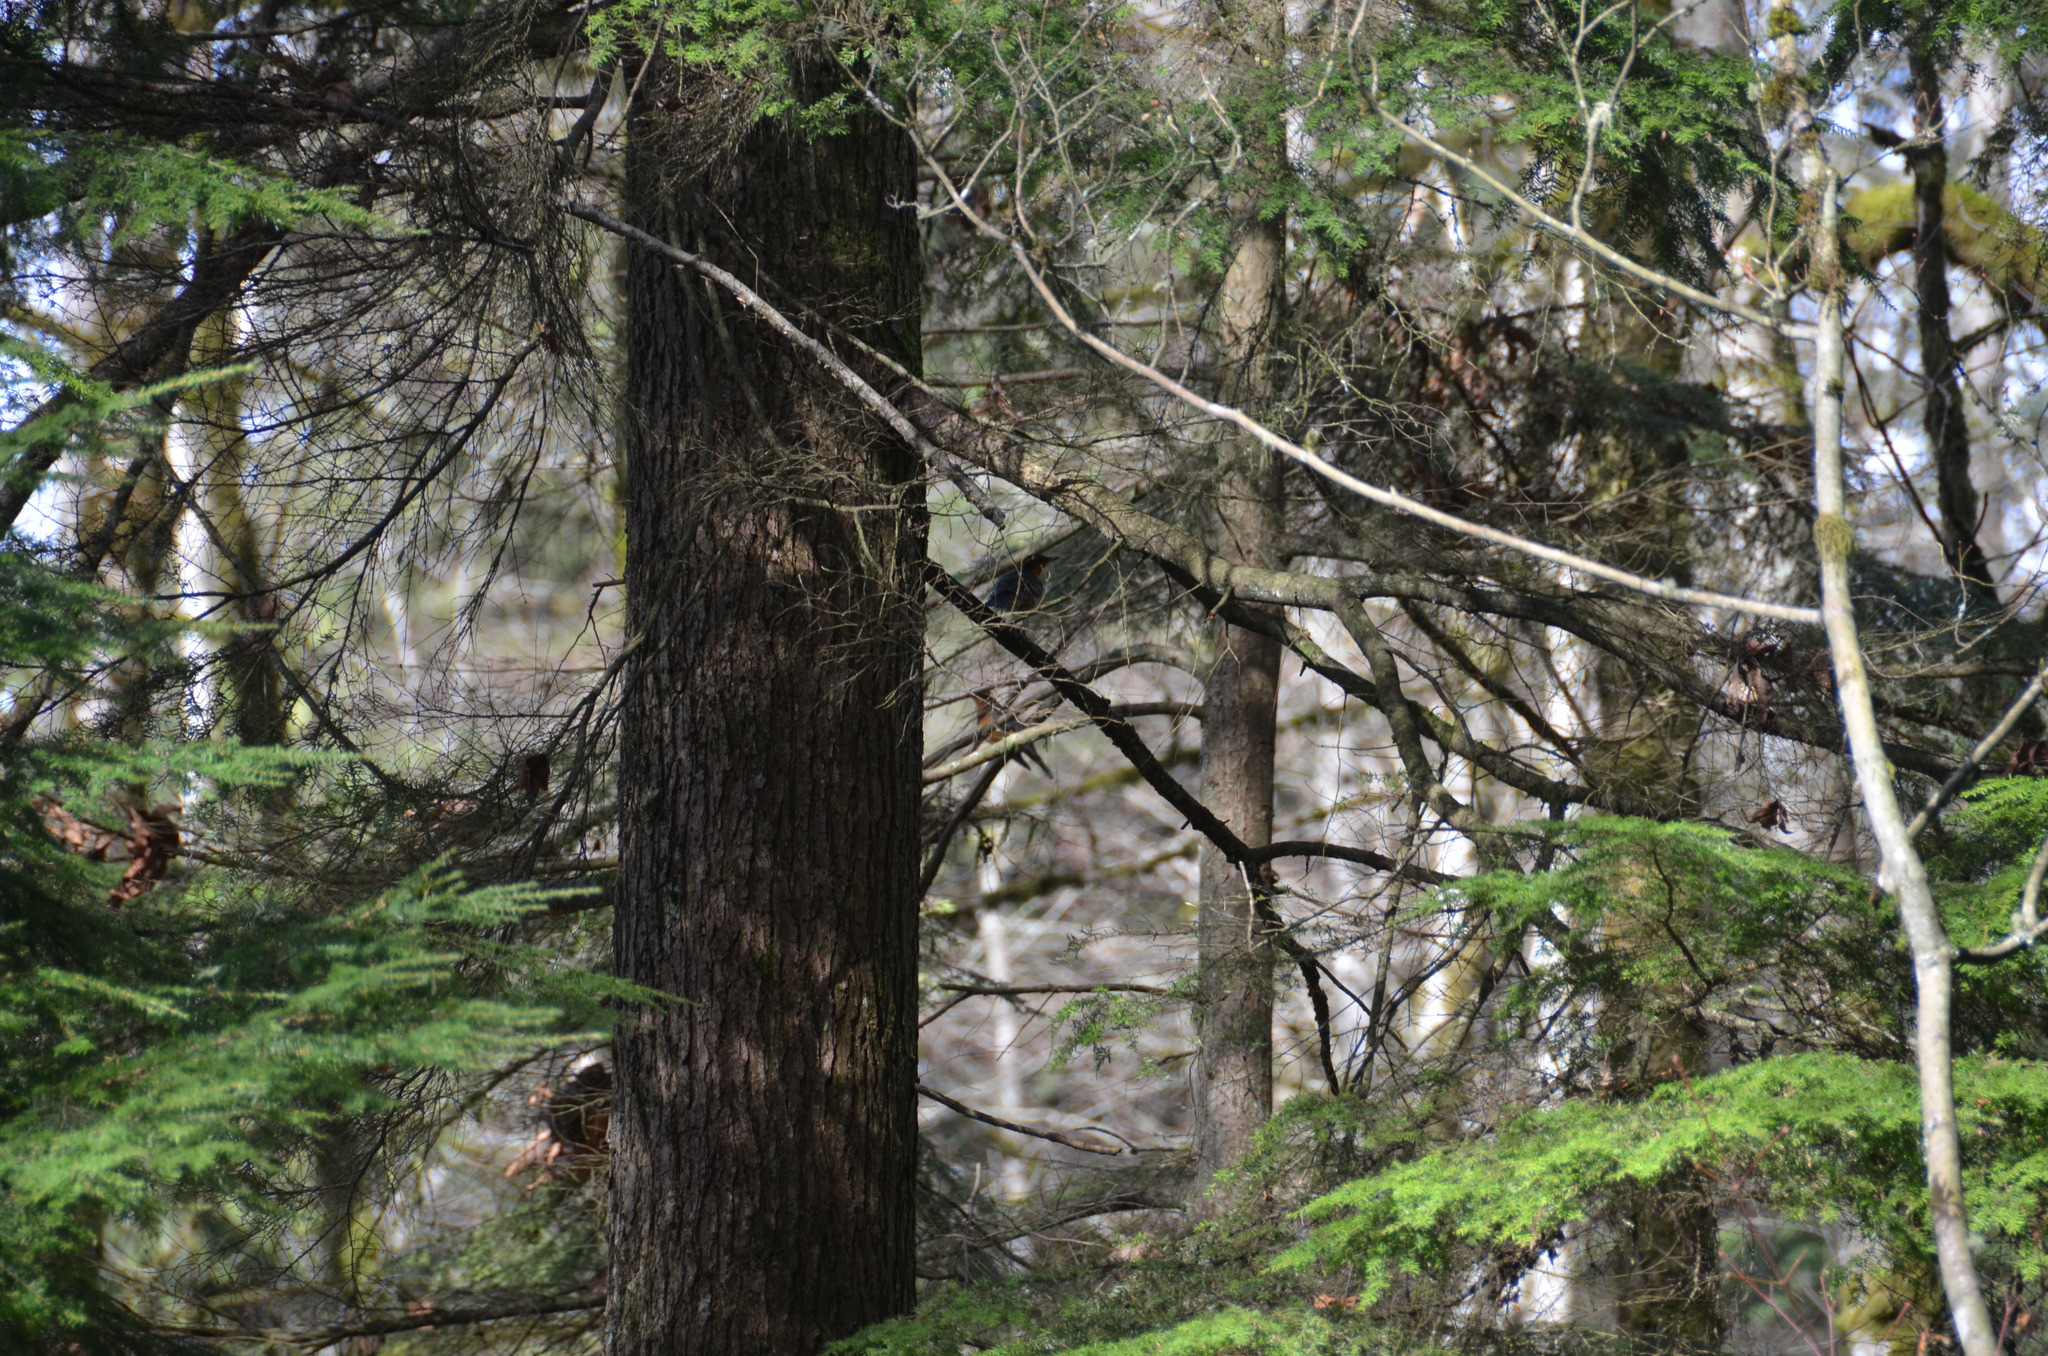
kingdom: Animalia
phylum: Chordata
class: Aves
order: Passeriformes
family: Turdidae
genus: Ixoreus
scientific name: Ixoreus naevius
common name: Varied thrush
